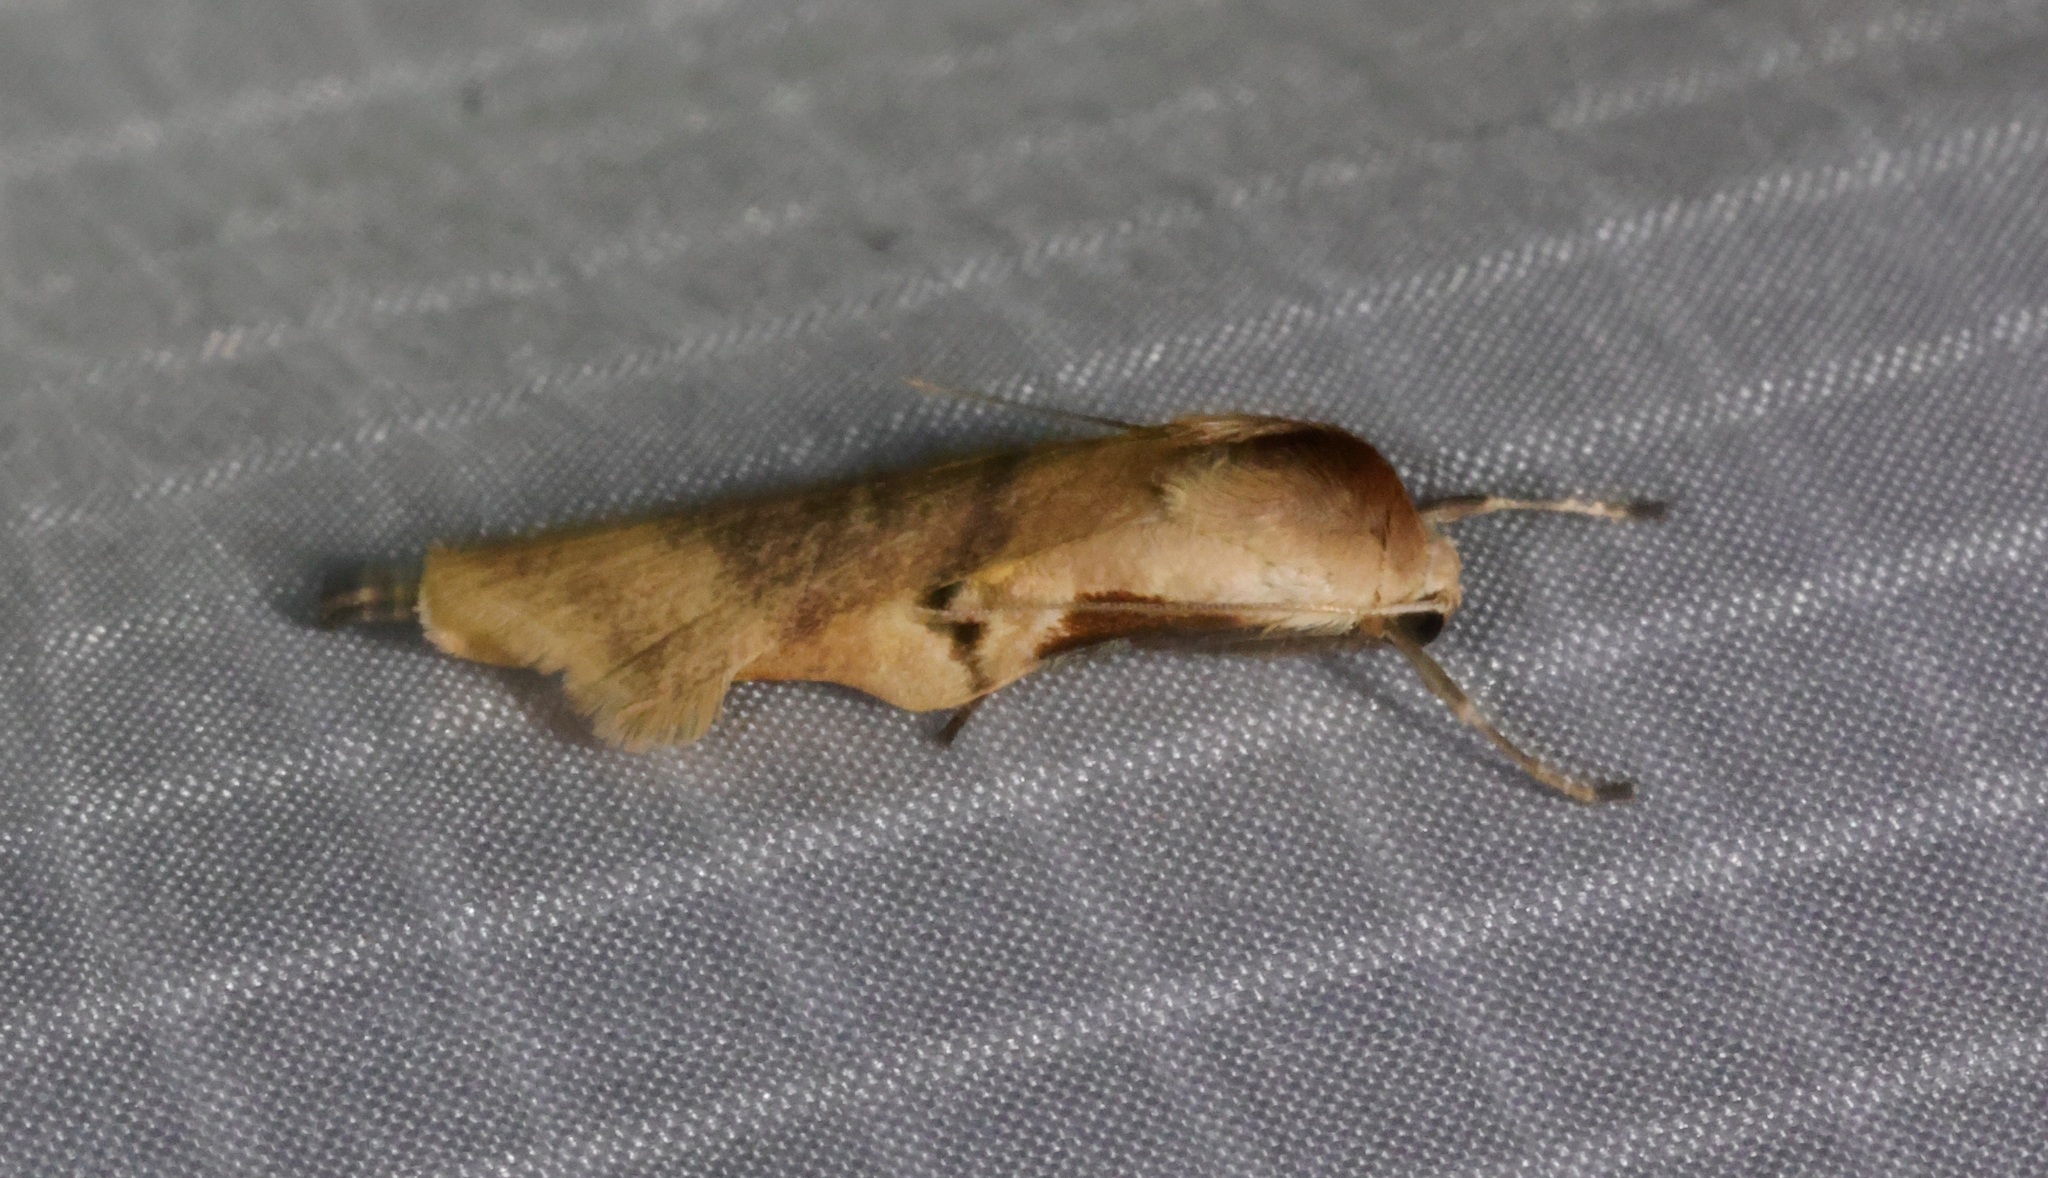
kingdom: Animalia
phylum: Arthropoda
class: Insecta
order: Lepidoptera
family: Erebidae
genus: Teulisna
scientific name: Teulisna tumida
